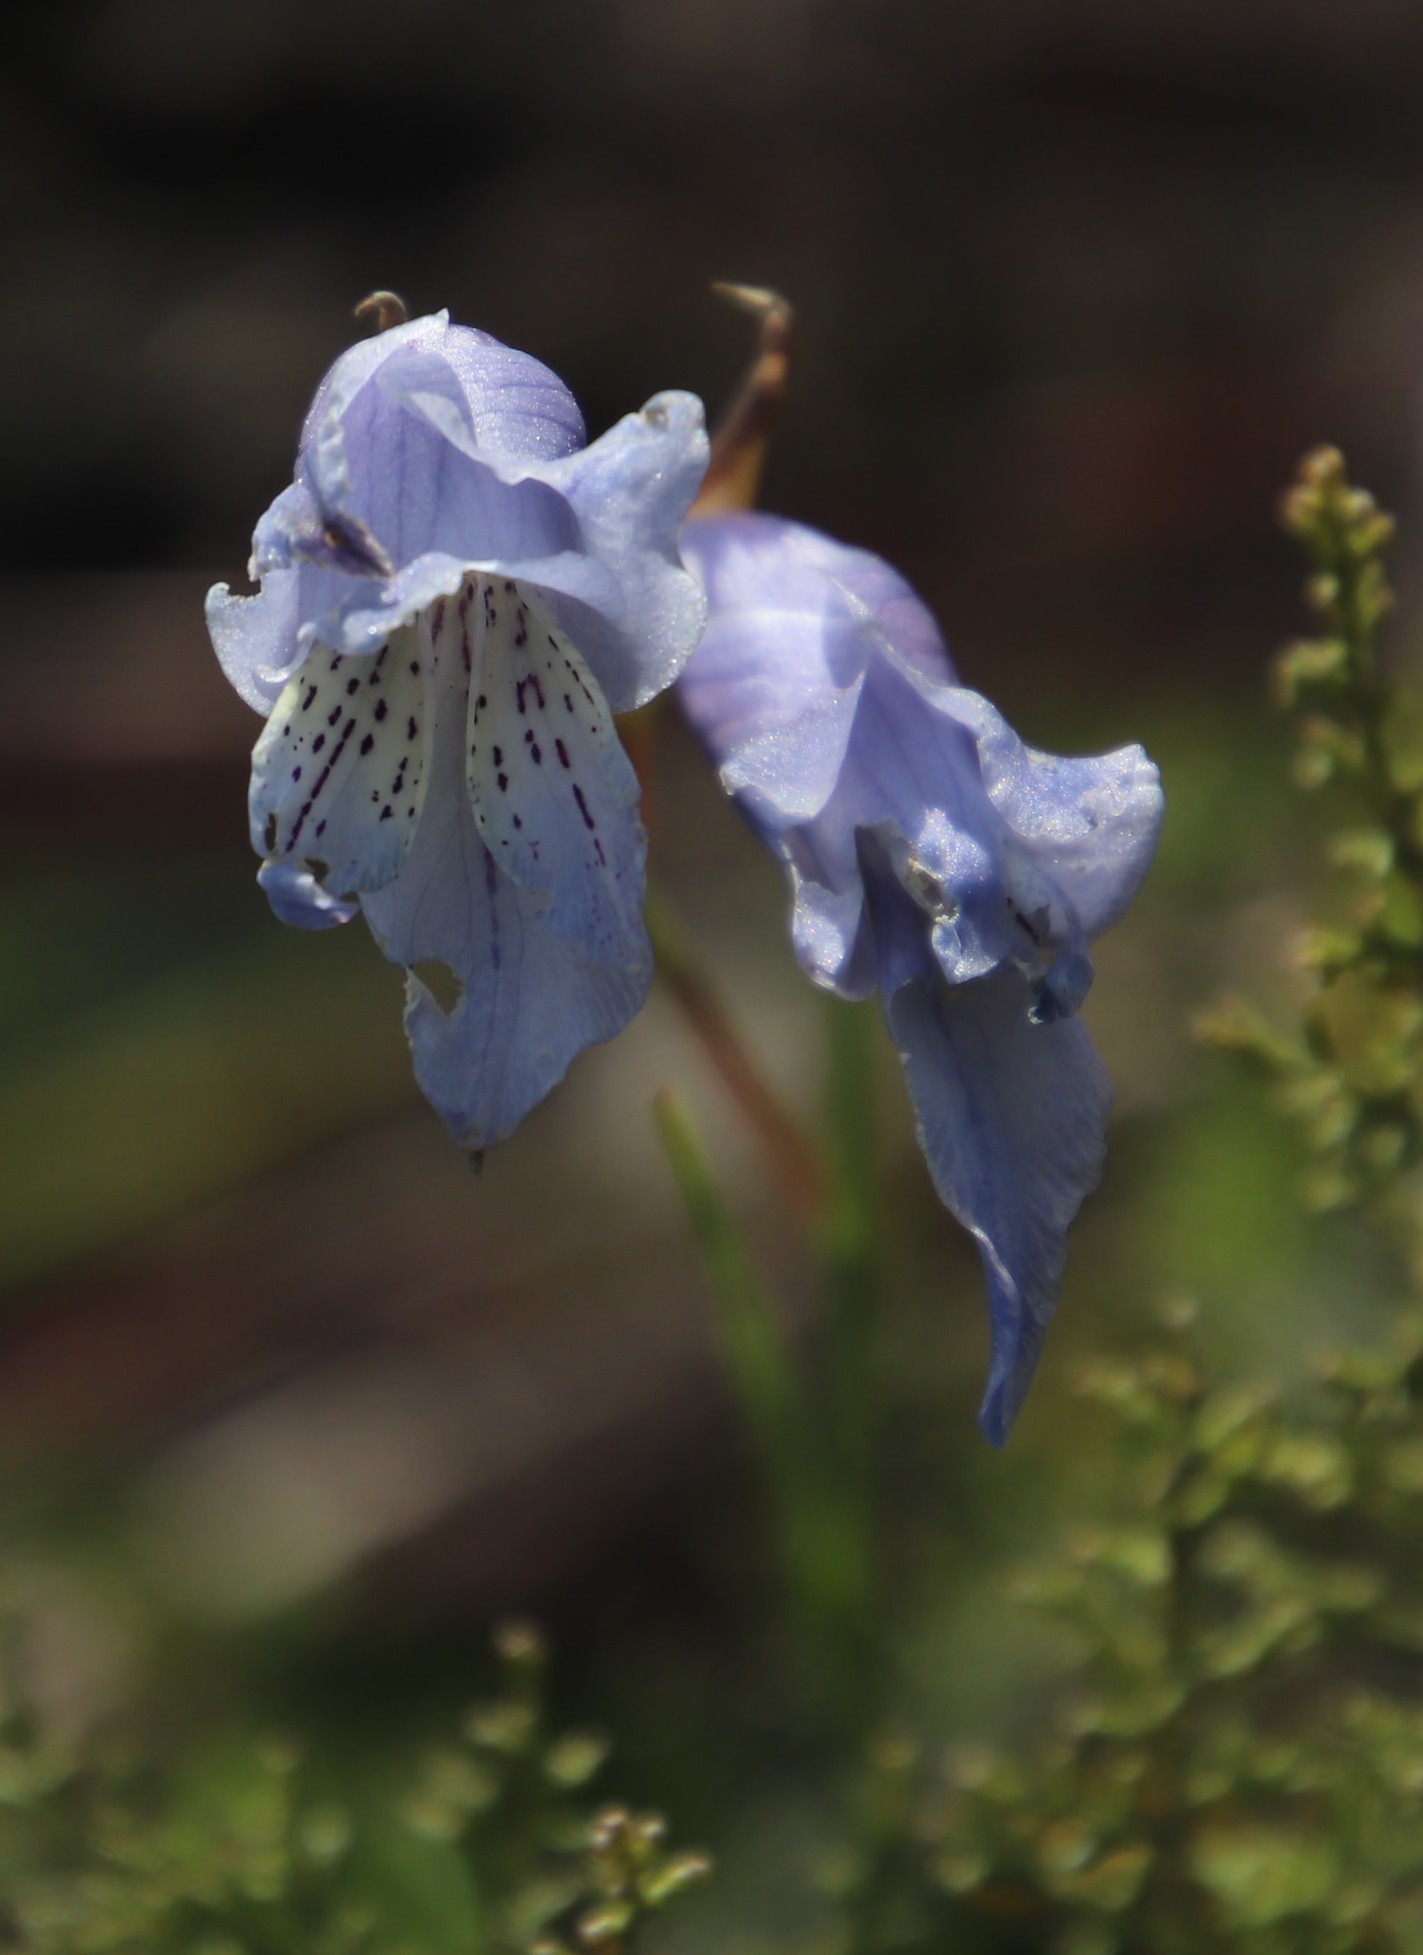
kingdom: Plantae
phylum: Tracheophyta
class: Liliopsida
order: Asparagales
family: Iridaceae
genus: Gladiolus
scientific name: Gladiolus gracilis
